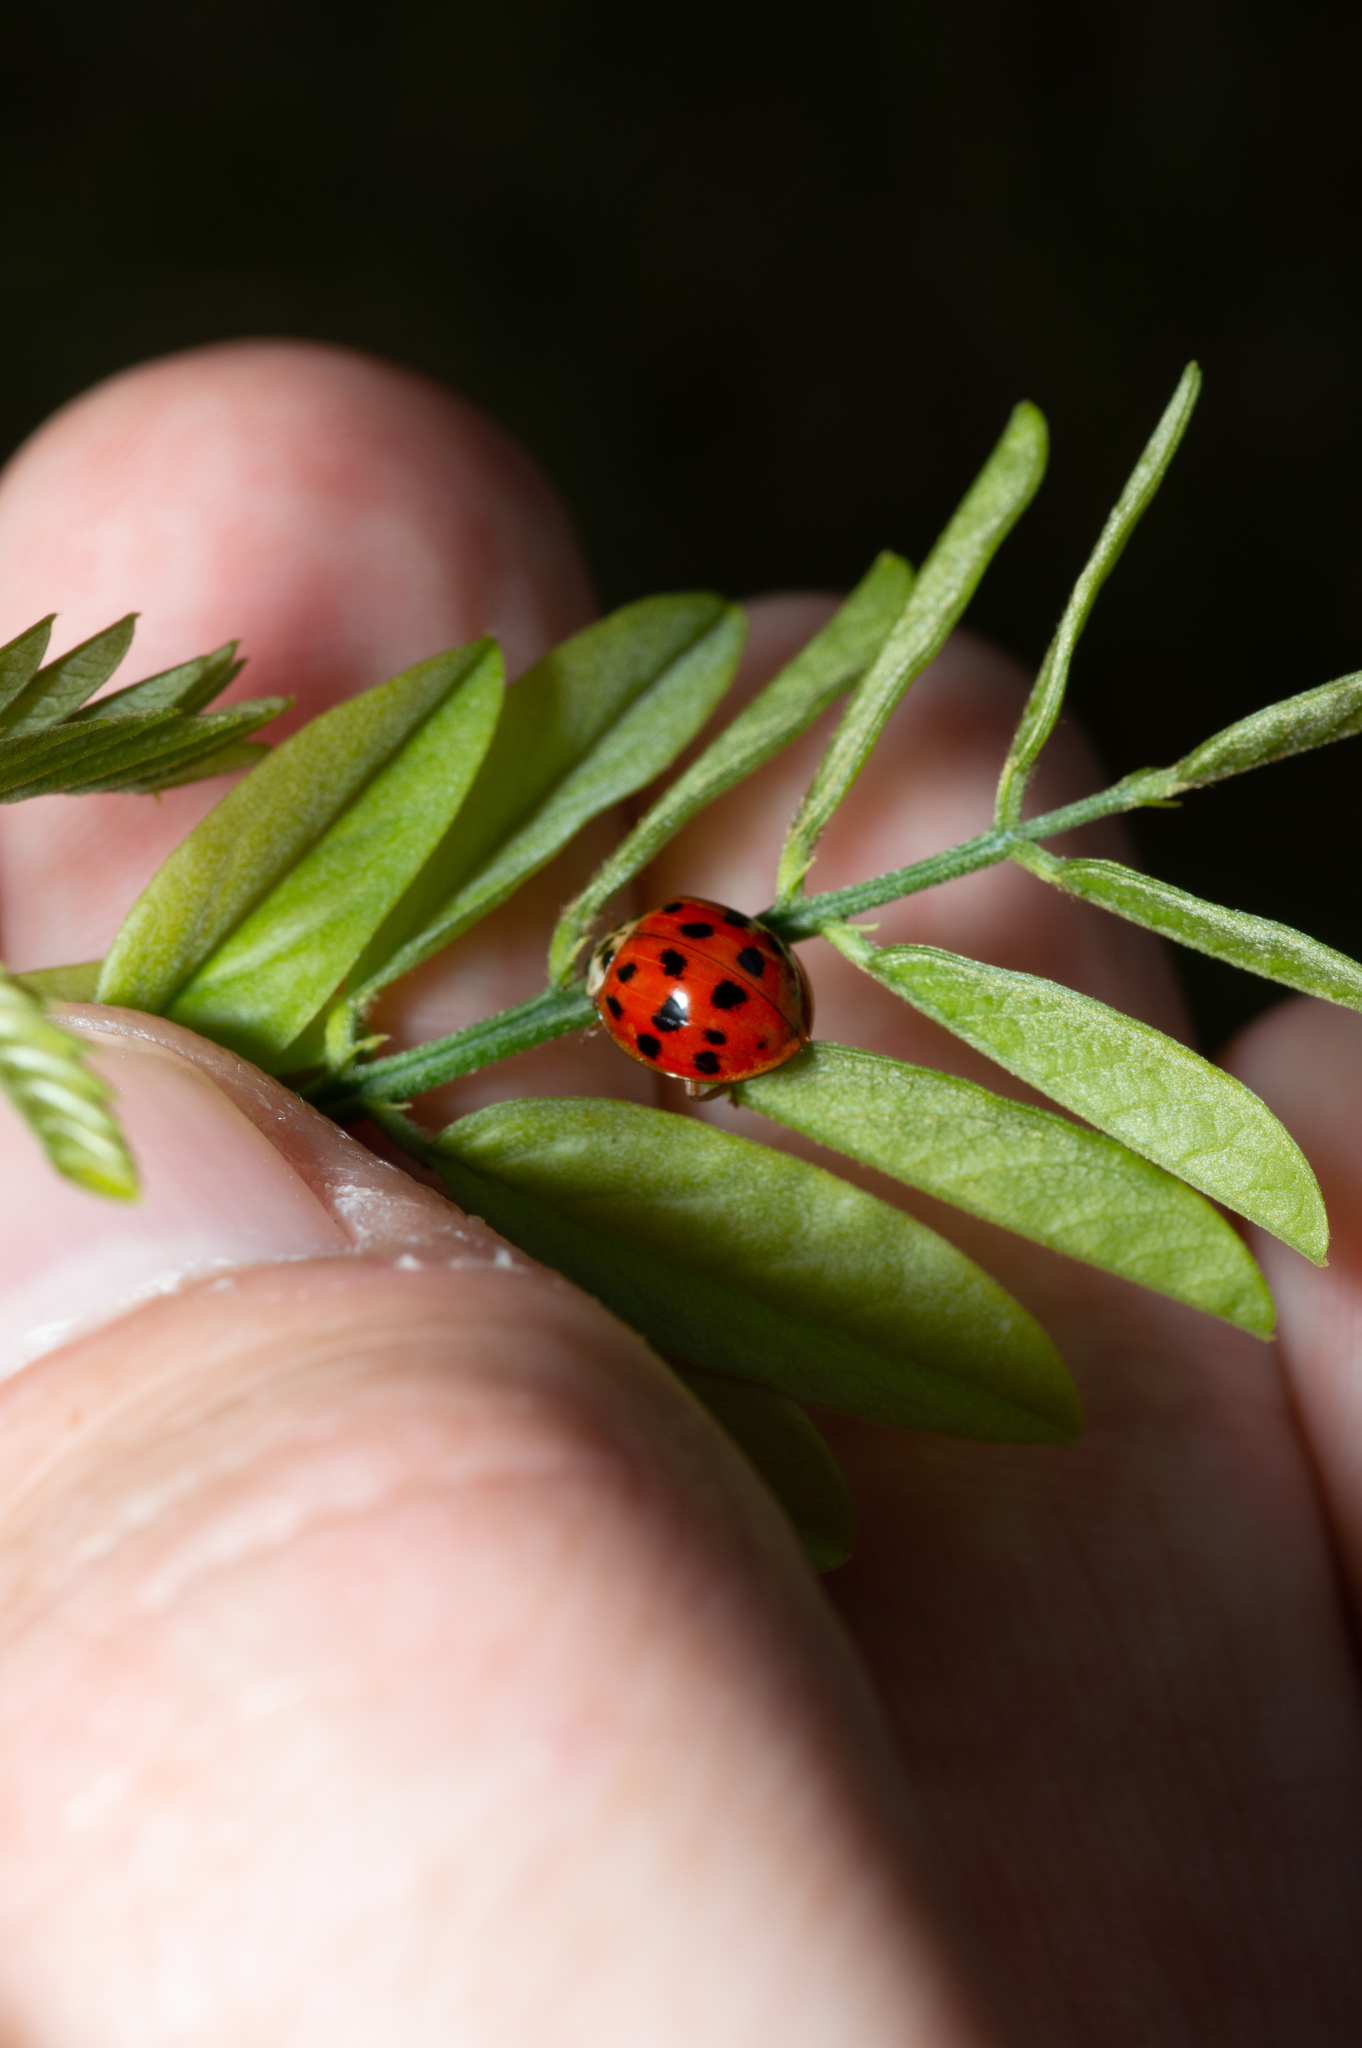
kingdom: Animalia
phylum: Arthropoda
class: Insecta
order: Coleoptera
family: Coccinellidae
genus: Harmonia
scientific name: Harmonia axyridis
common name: Harlequin ladybird
